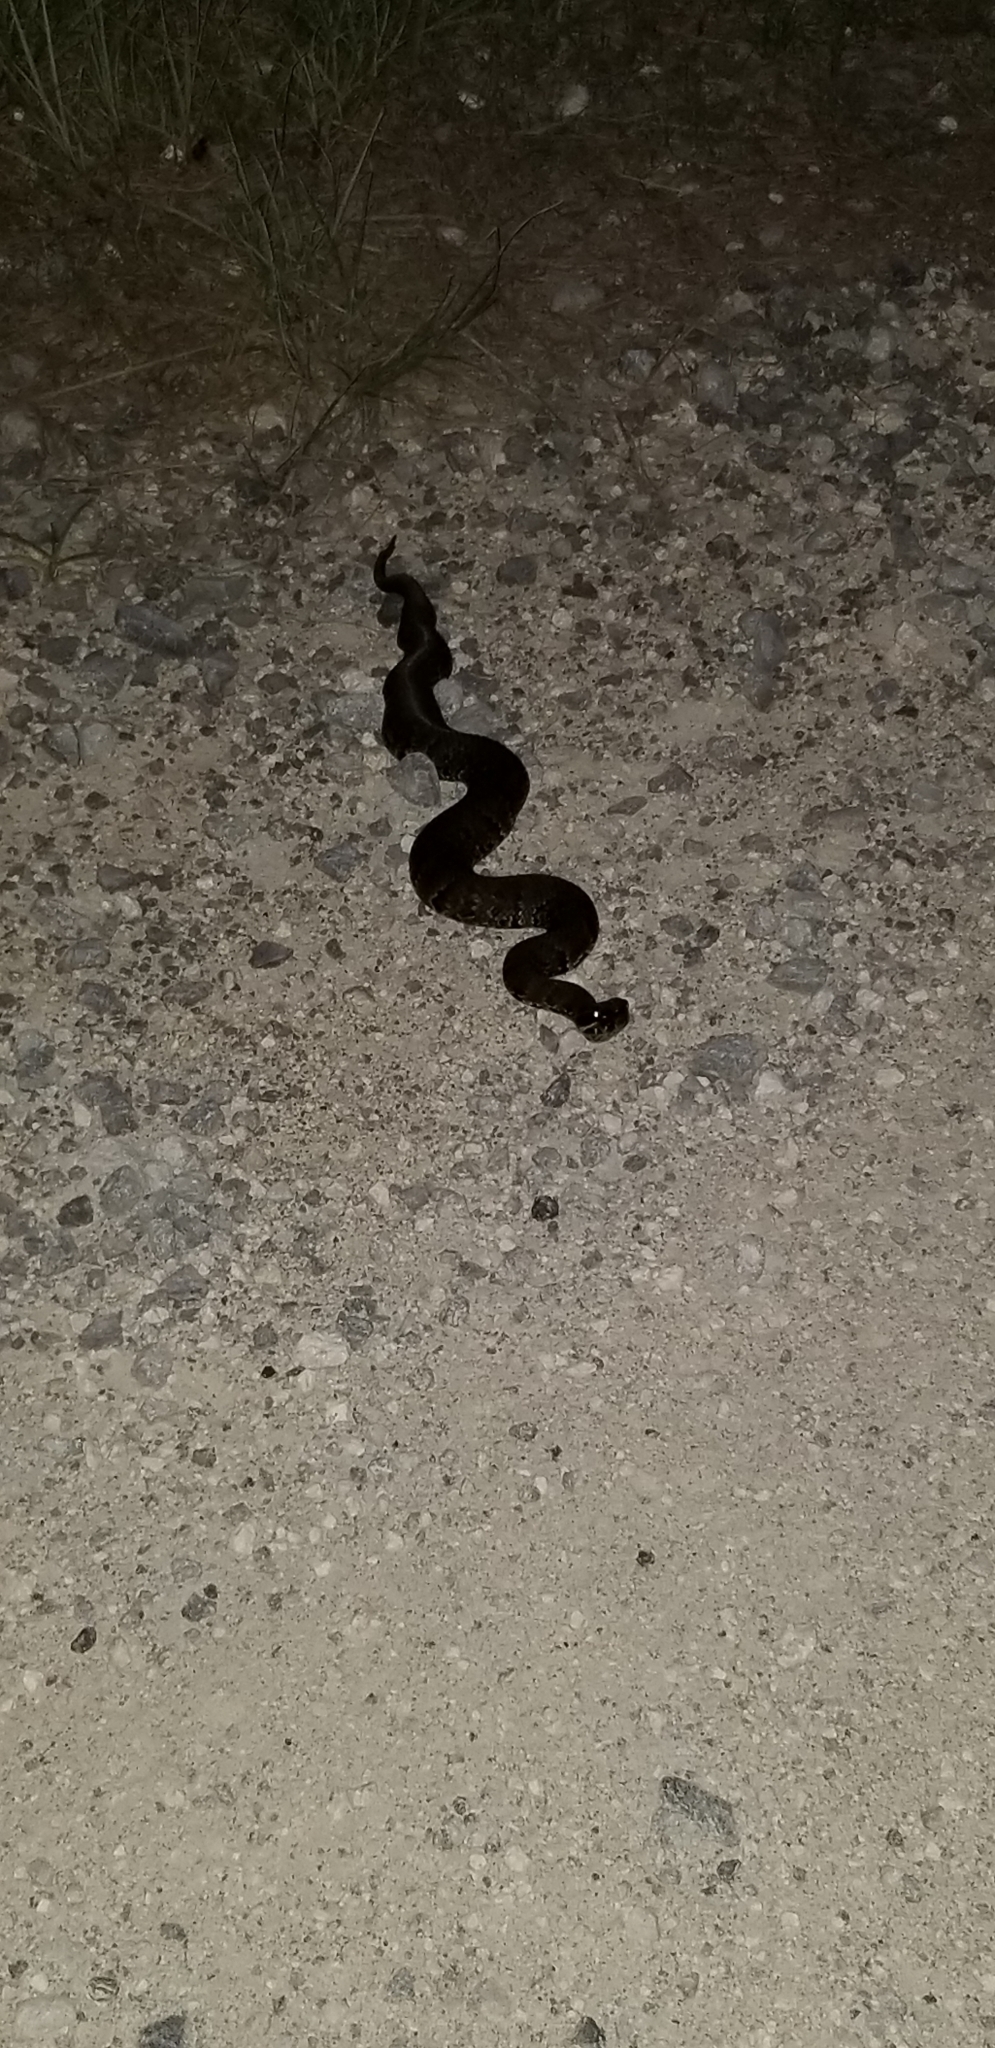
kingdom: Animalia
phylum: Chordata
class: Squamata
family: Viperidae
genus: Agkistrodon
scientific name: Agkistrodon piscivorus
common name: Cottonmouth
